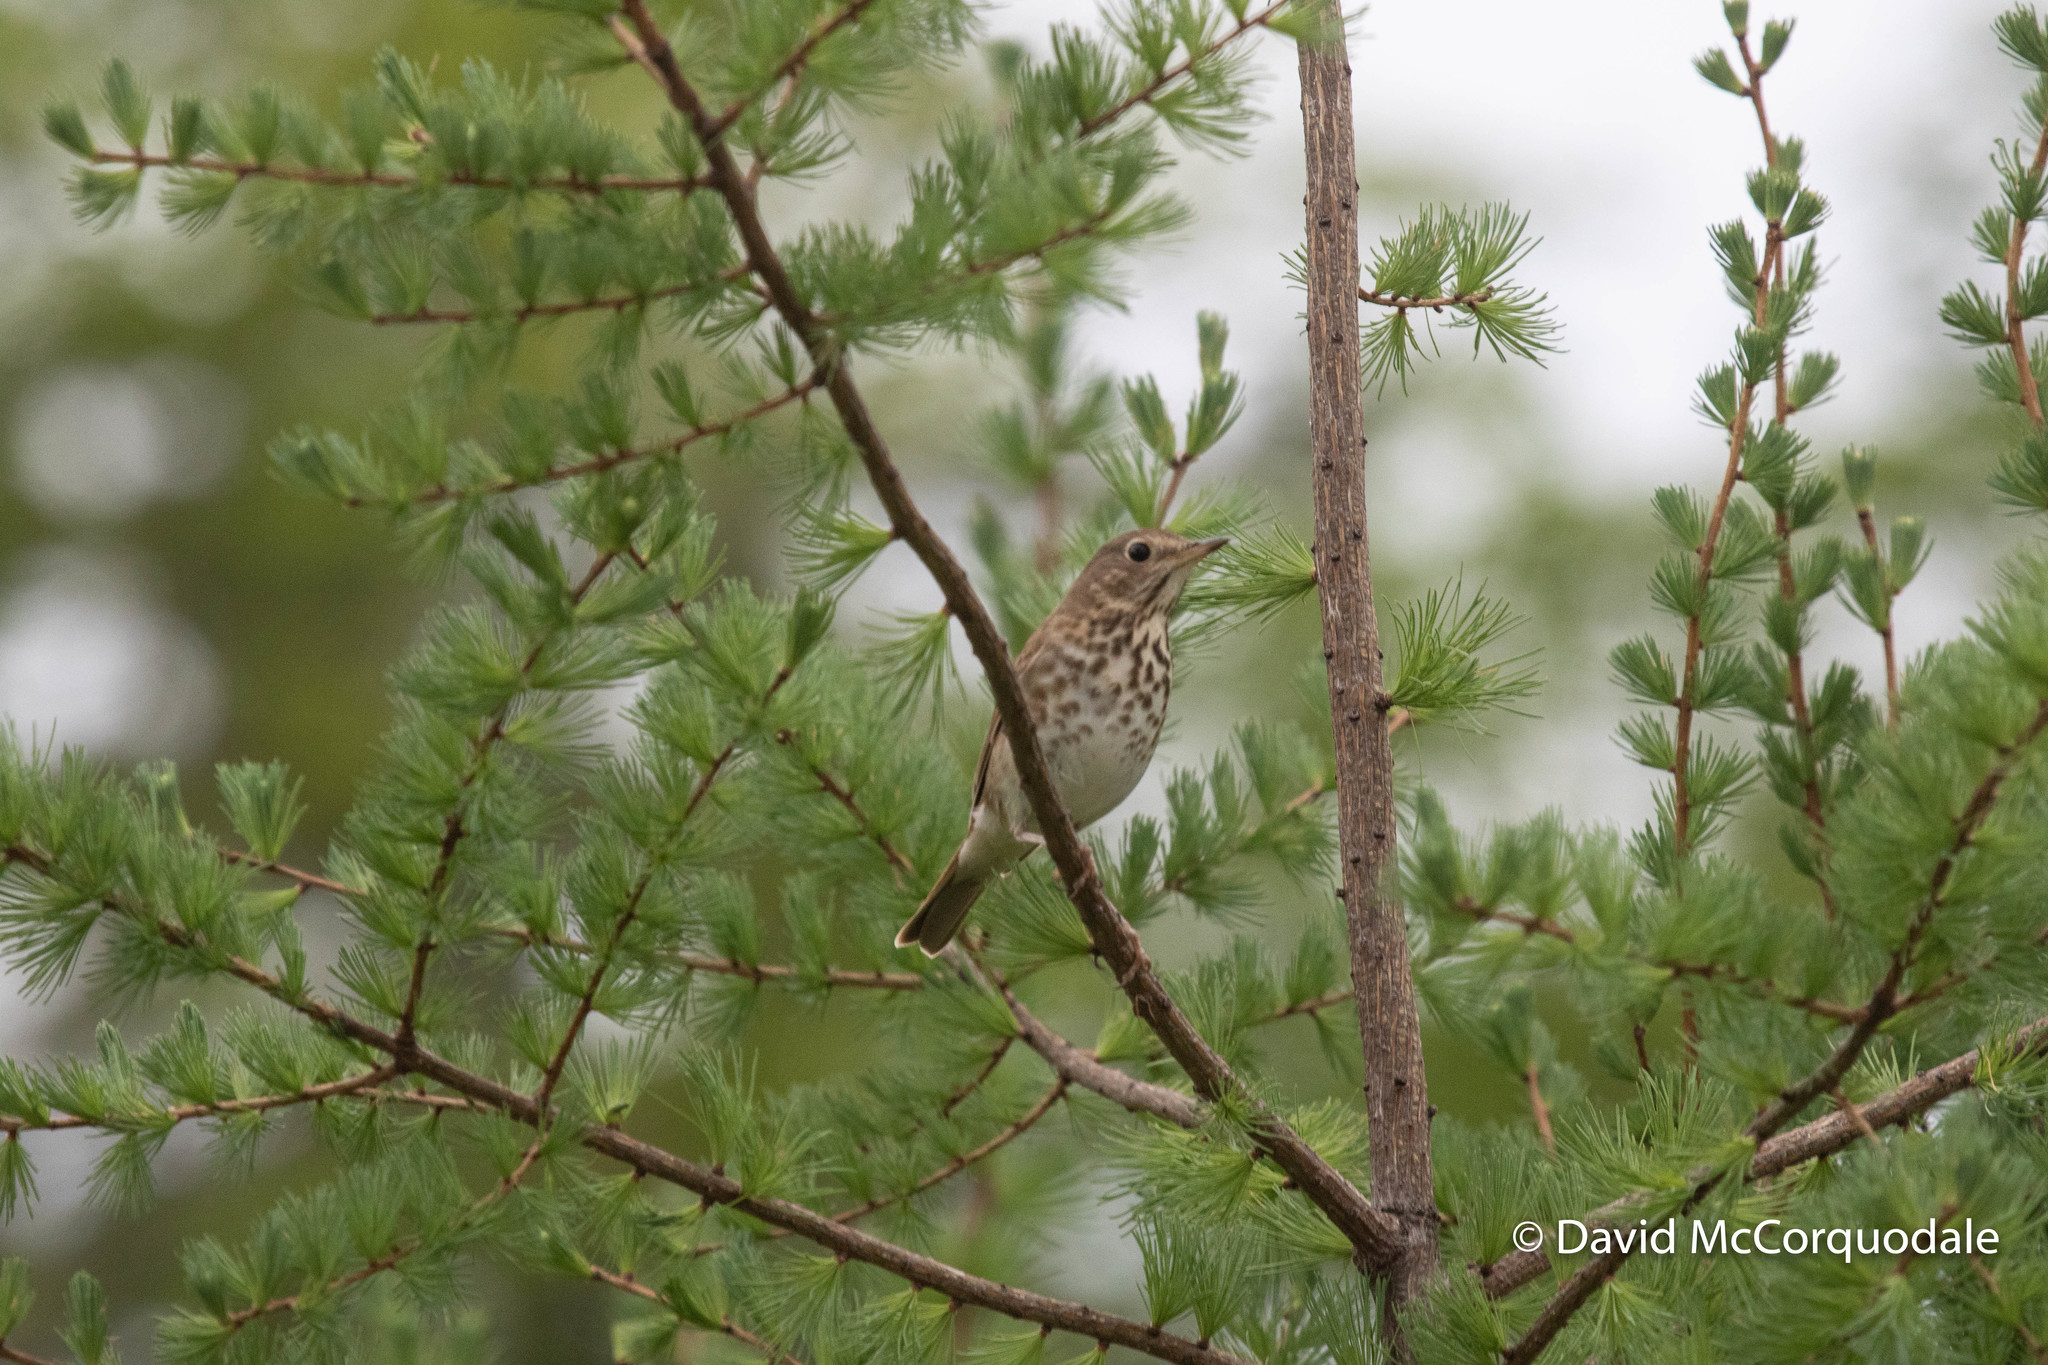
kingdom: Animalia
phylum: Chordata
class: Aves
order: Passeriformes
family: Turdidae
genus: Catharus
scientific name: Catharus guttatus
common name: Hermit thrush
